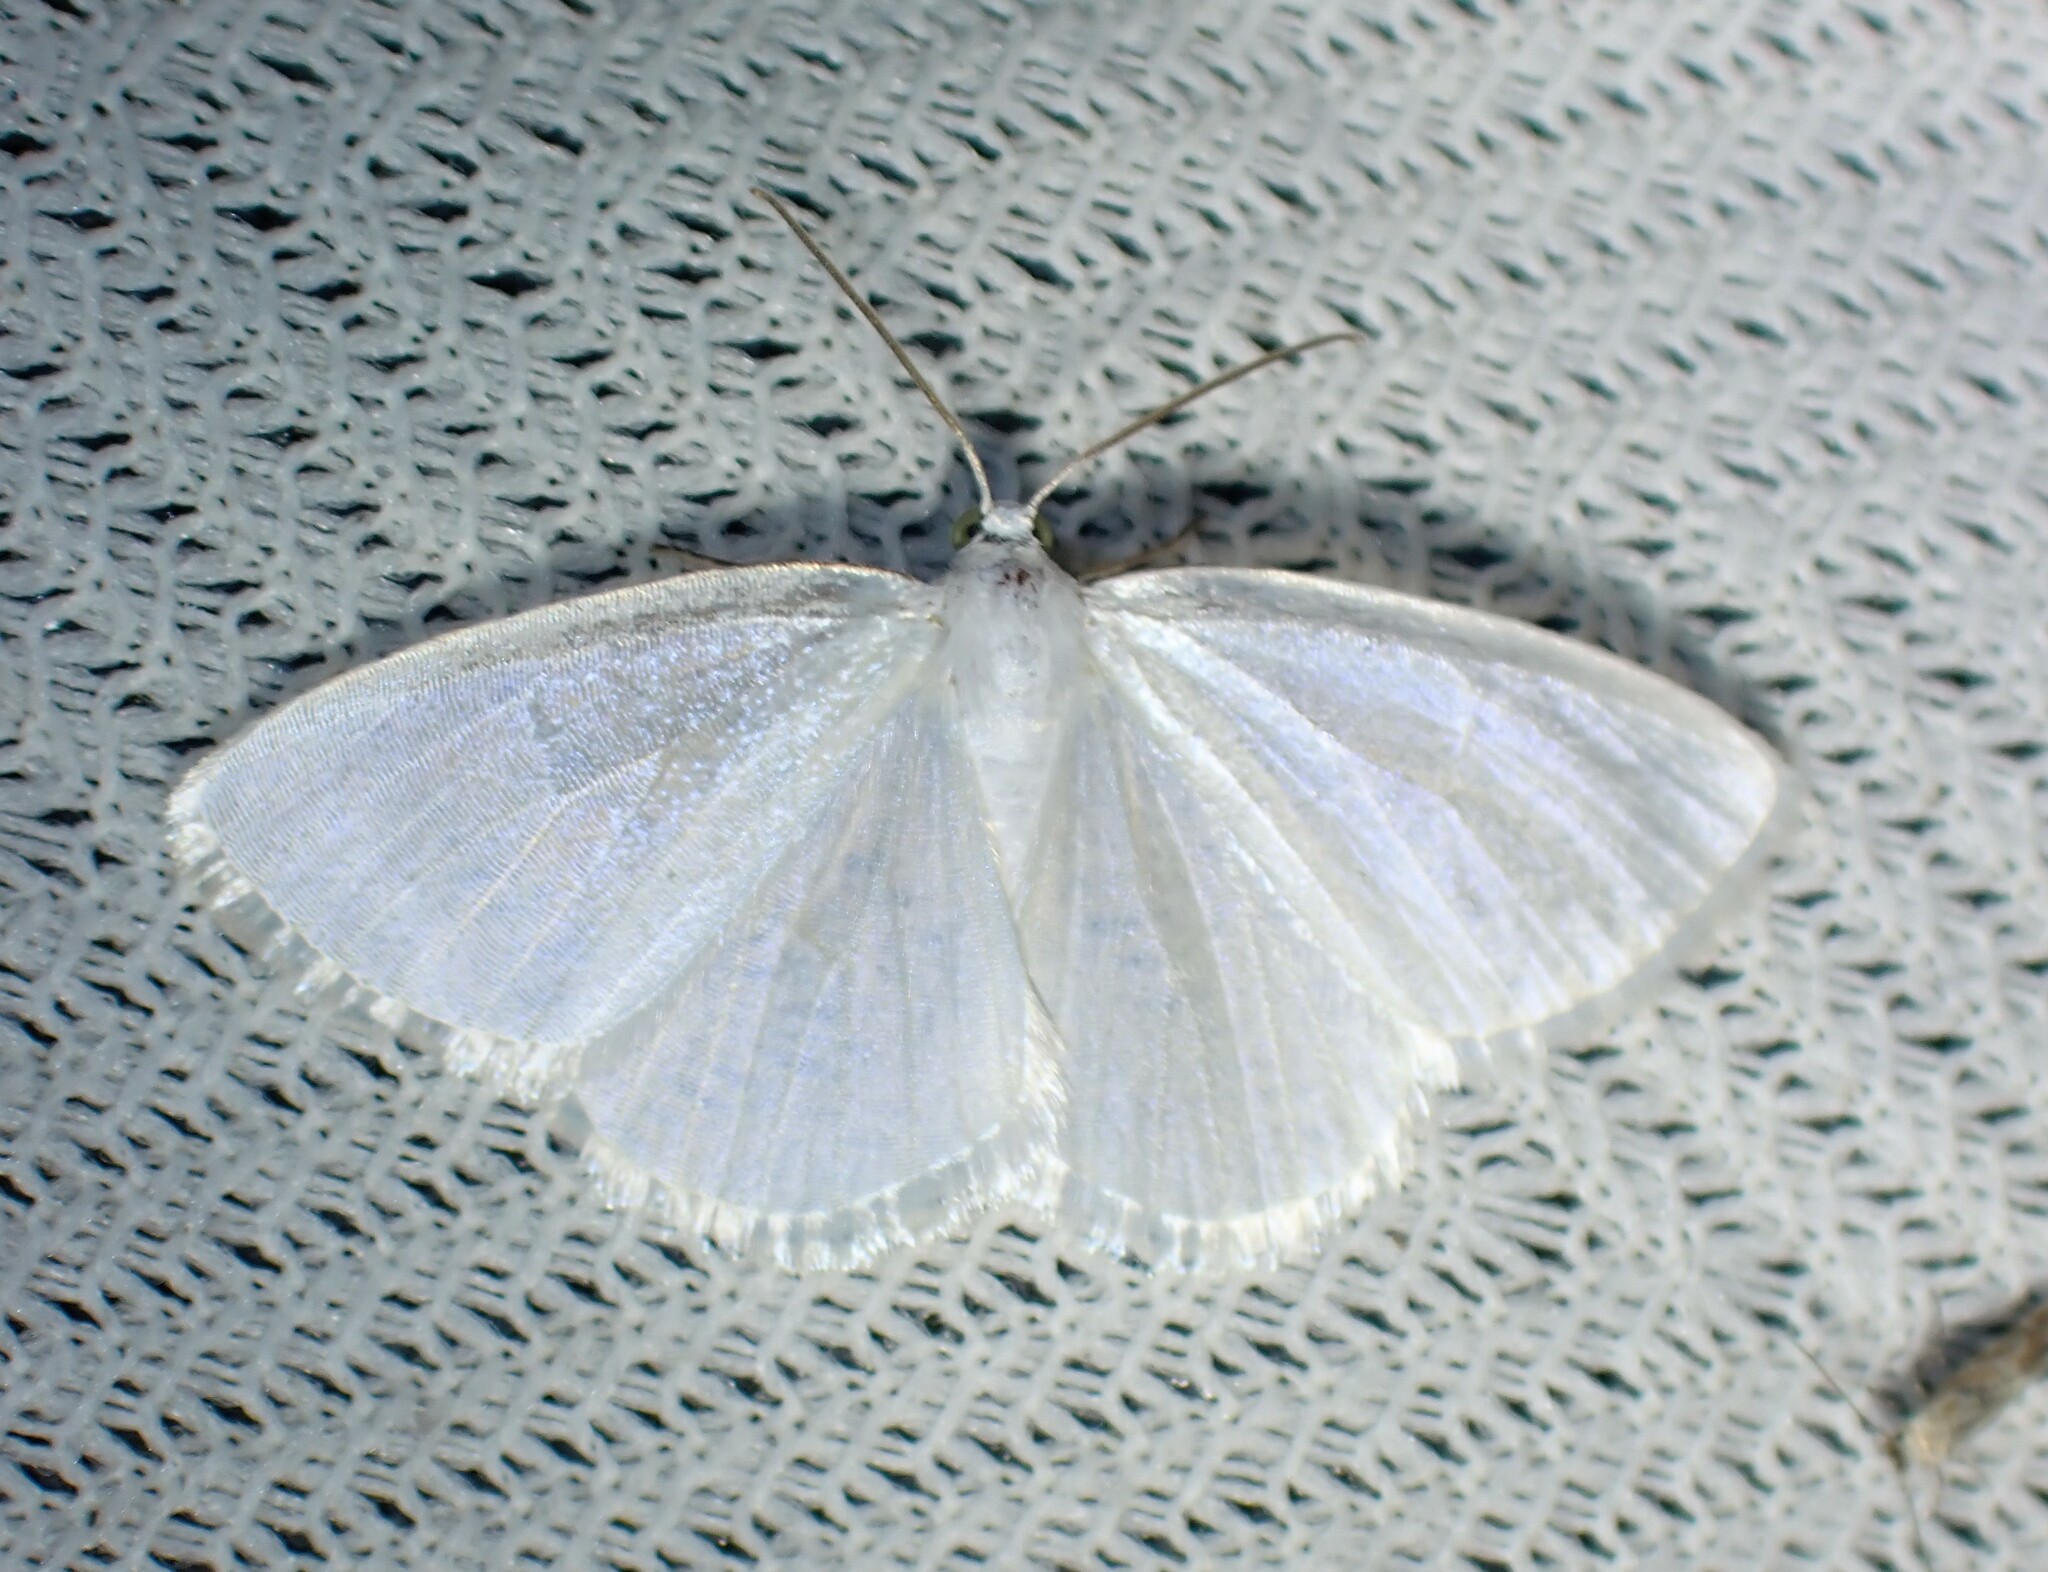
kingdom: Animalia
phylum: Arthropoda
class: Insecta
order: Lepidoptera
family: Geometridae
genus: Lomographa
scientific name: Lomographa vestaliata
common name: White spring moth
